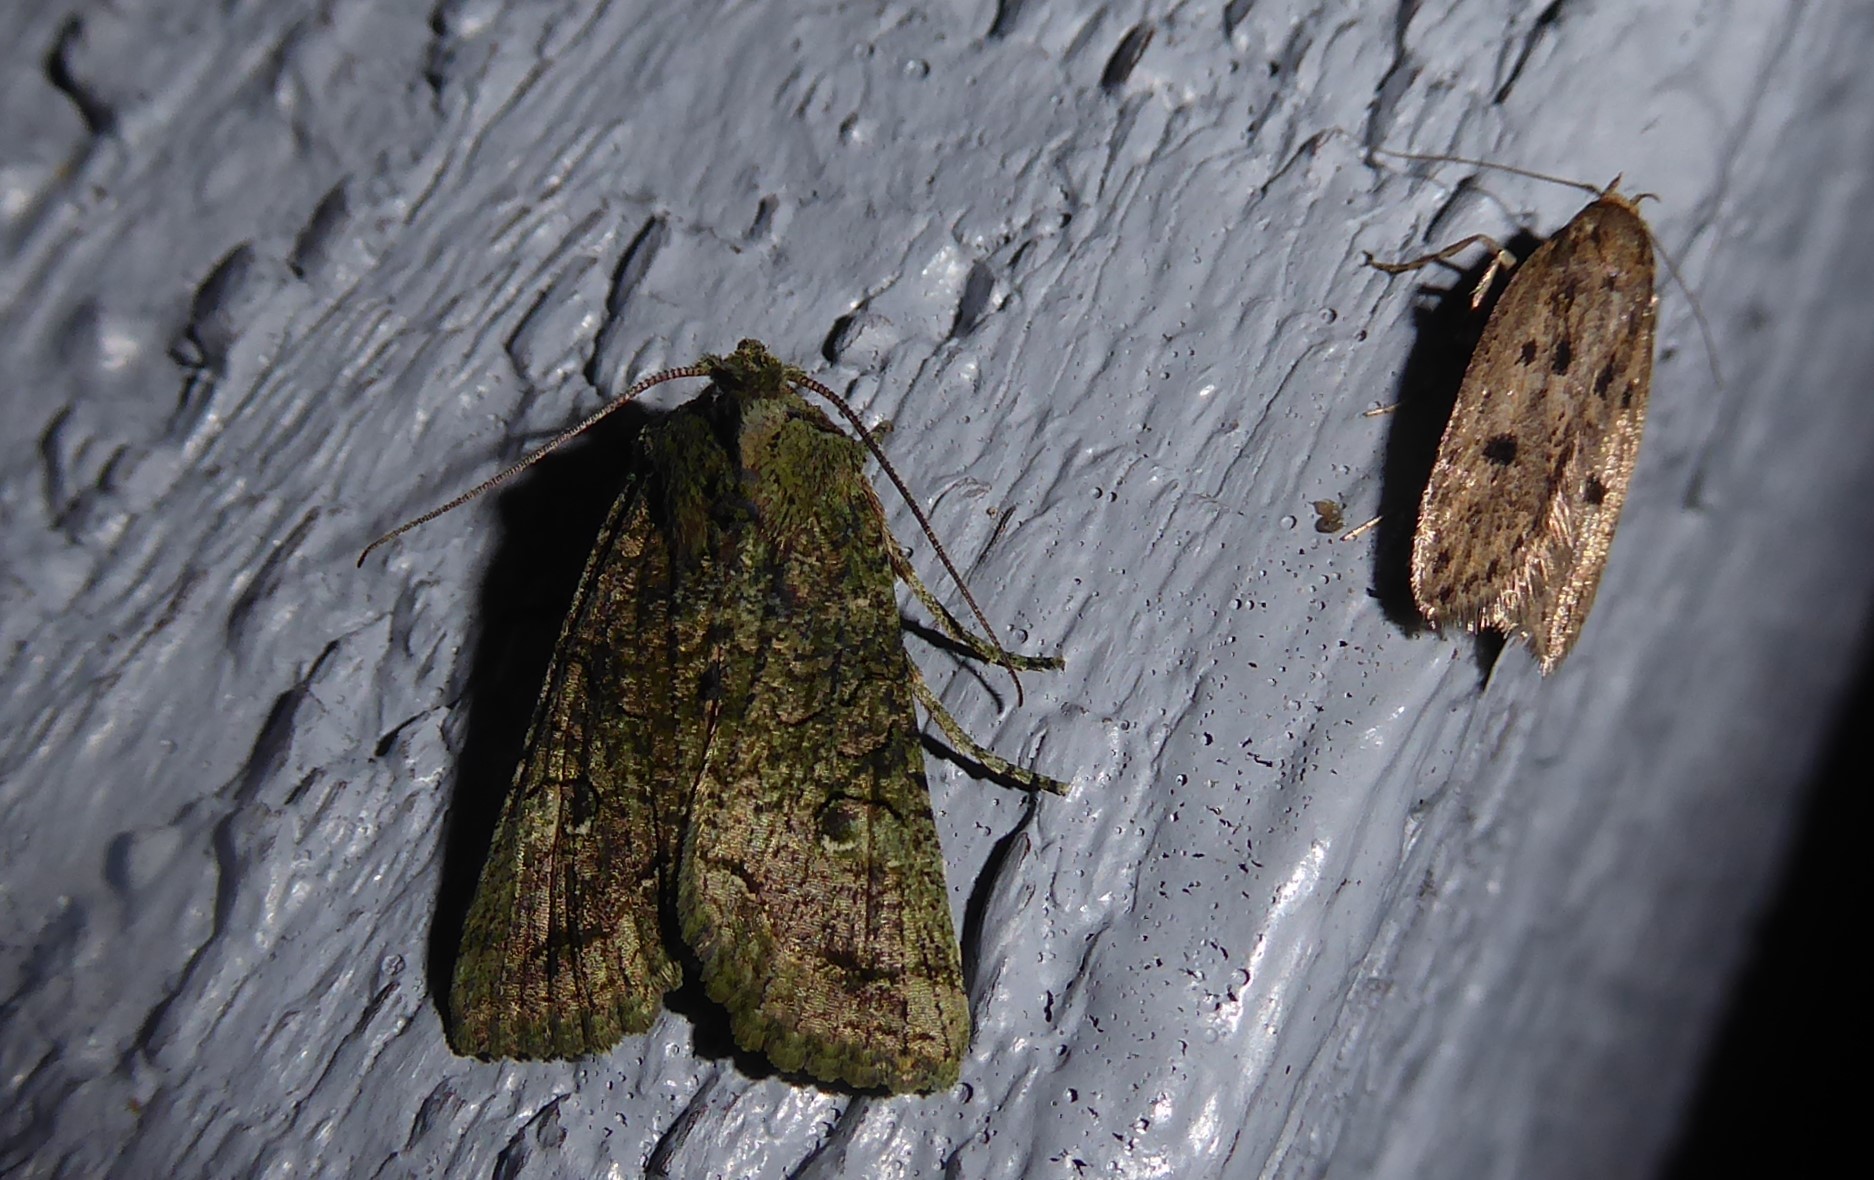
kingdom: Animalia
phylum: Arthropoda
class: Insecta
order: Lepidoptera
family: Noctuidae
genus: Meterana
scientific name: Meterana levis
